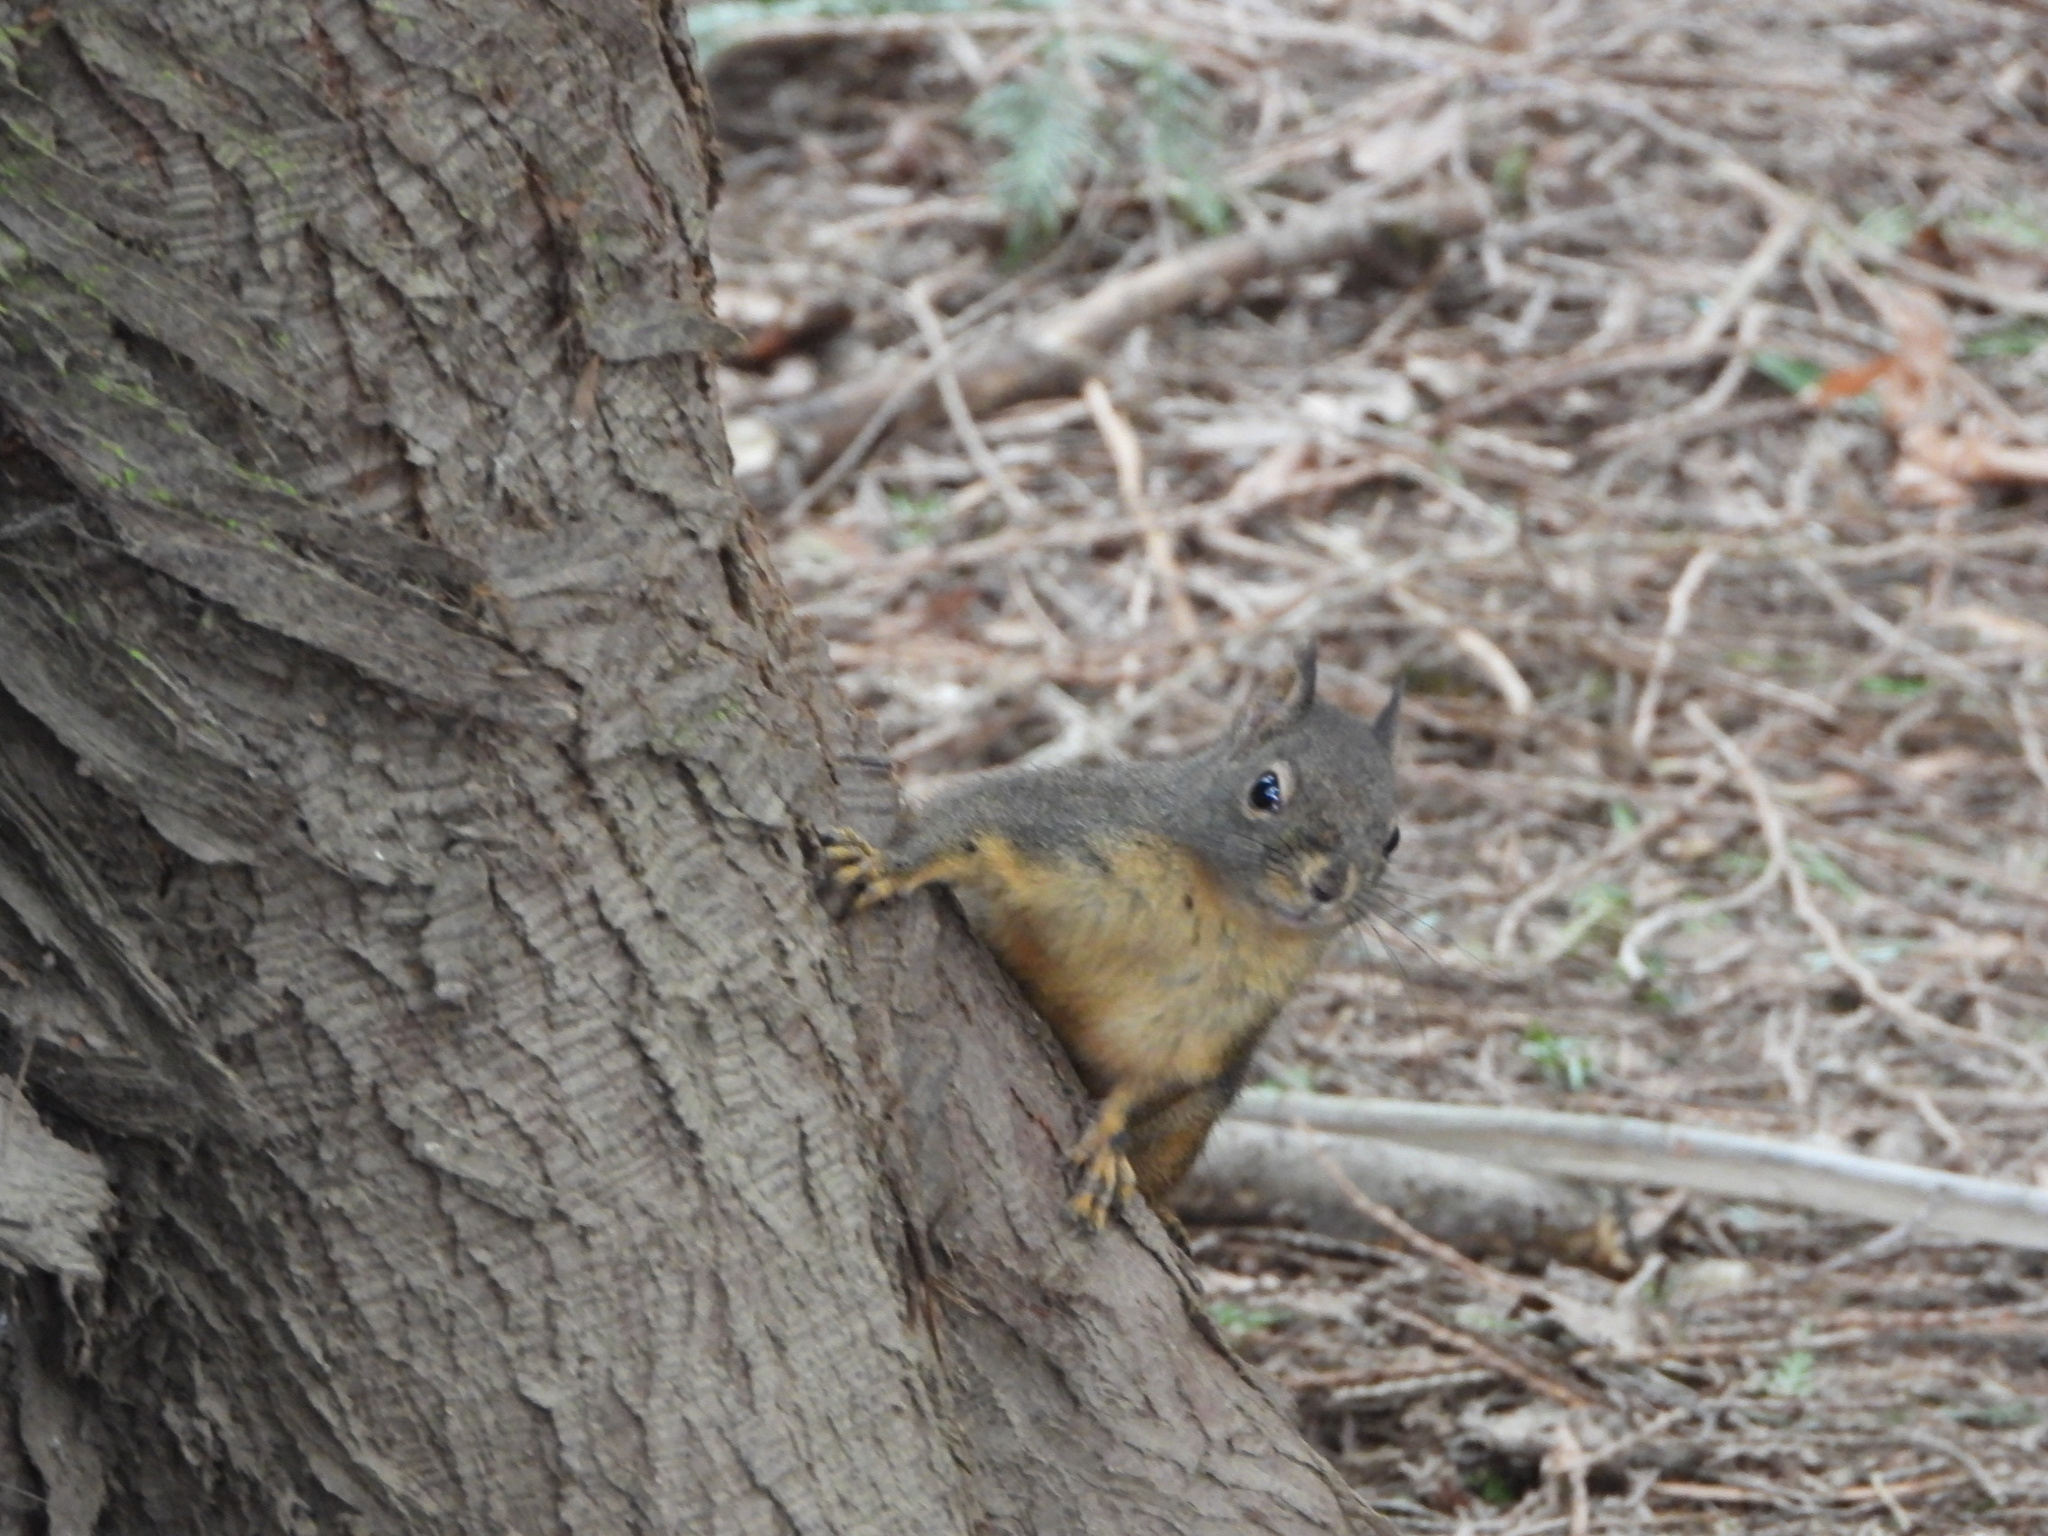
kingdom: Animalia
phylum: Chordata
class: Mammalia
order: Rodentia
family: Sciuridae
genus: Tamiasciurus
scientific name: Tamiasciurus douglasii
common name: Douglas's squirrel
